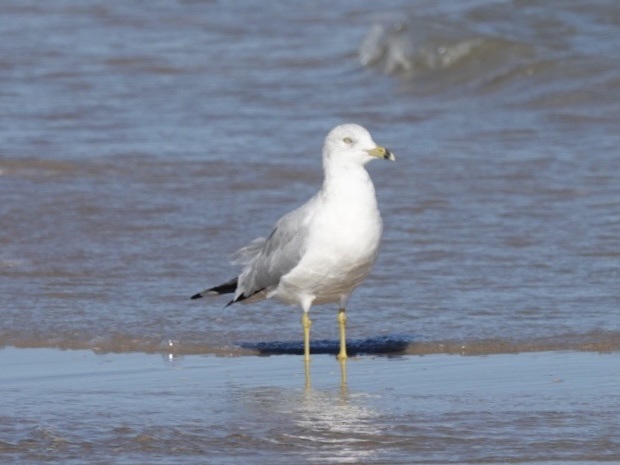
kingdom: Animalia
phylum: Chordata
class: Aves
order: Charadriiformes
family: Laridae
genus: Larus
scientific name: Larus delawarensis
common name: Ring-billed gull
